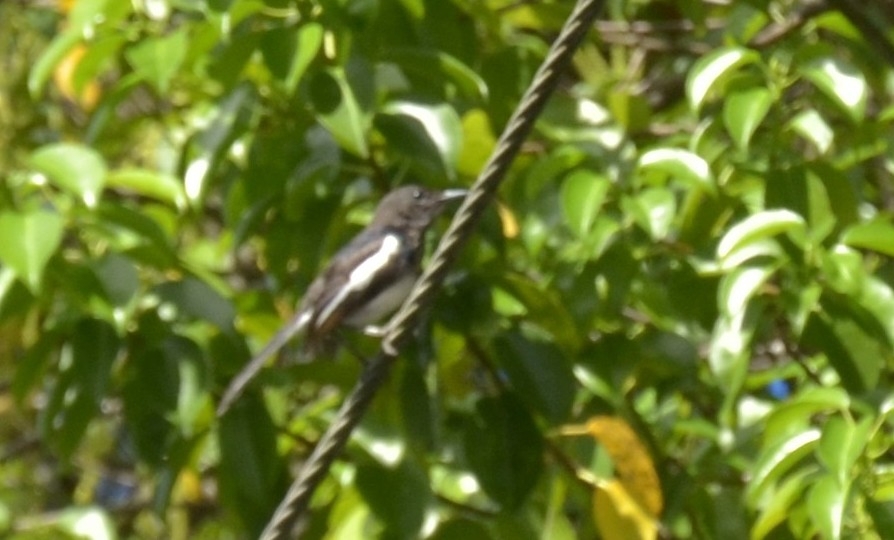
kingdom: Animalia
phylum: Chordata
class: Aves
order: Passeriformes
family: Muscicapidae
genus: Copsychus
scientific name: Copsychus saularis
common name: Oriental magpie-robin
